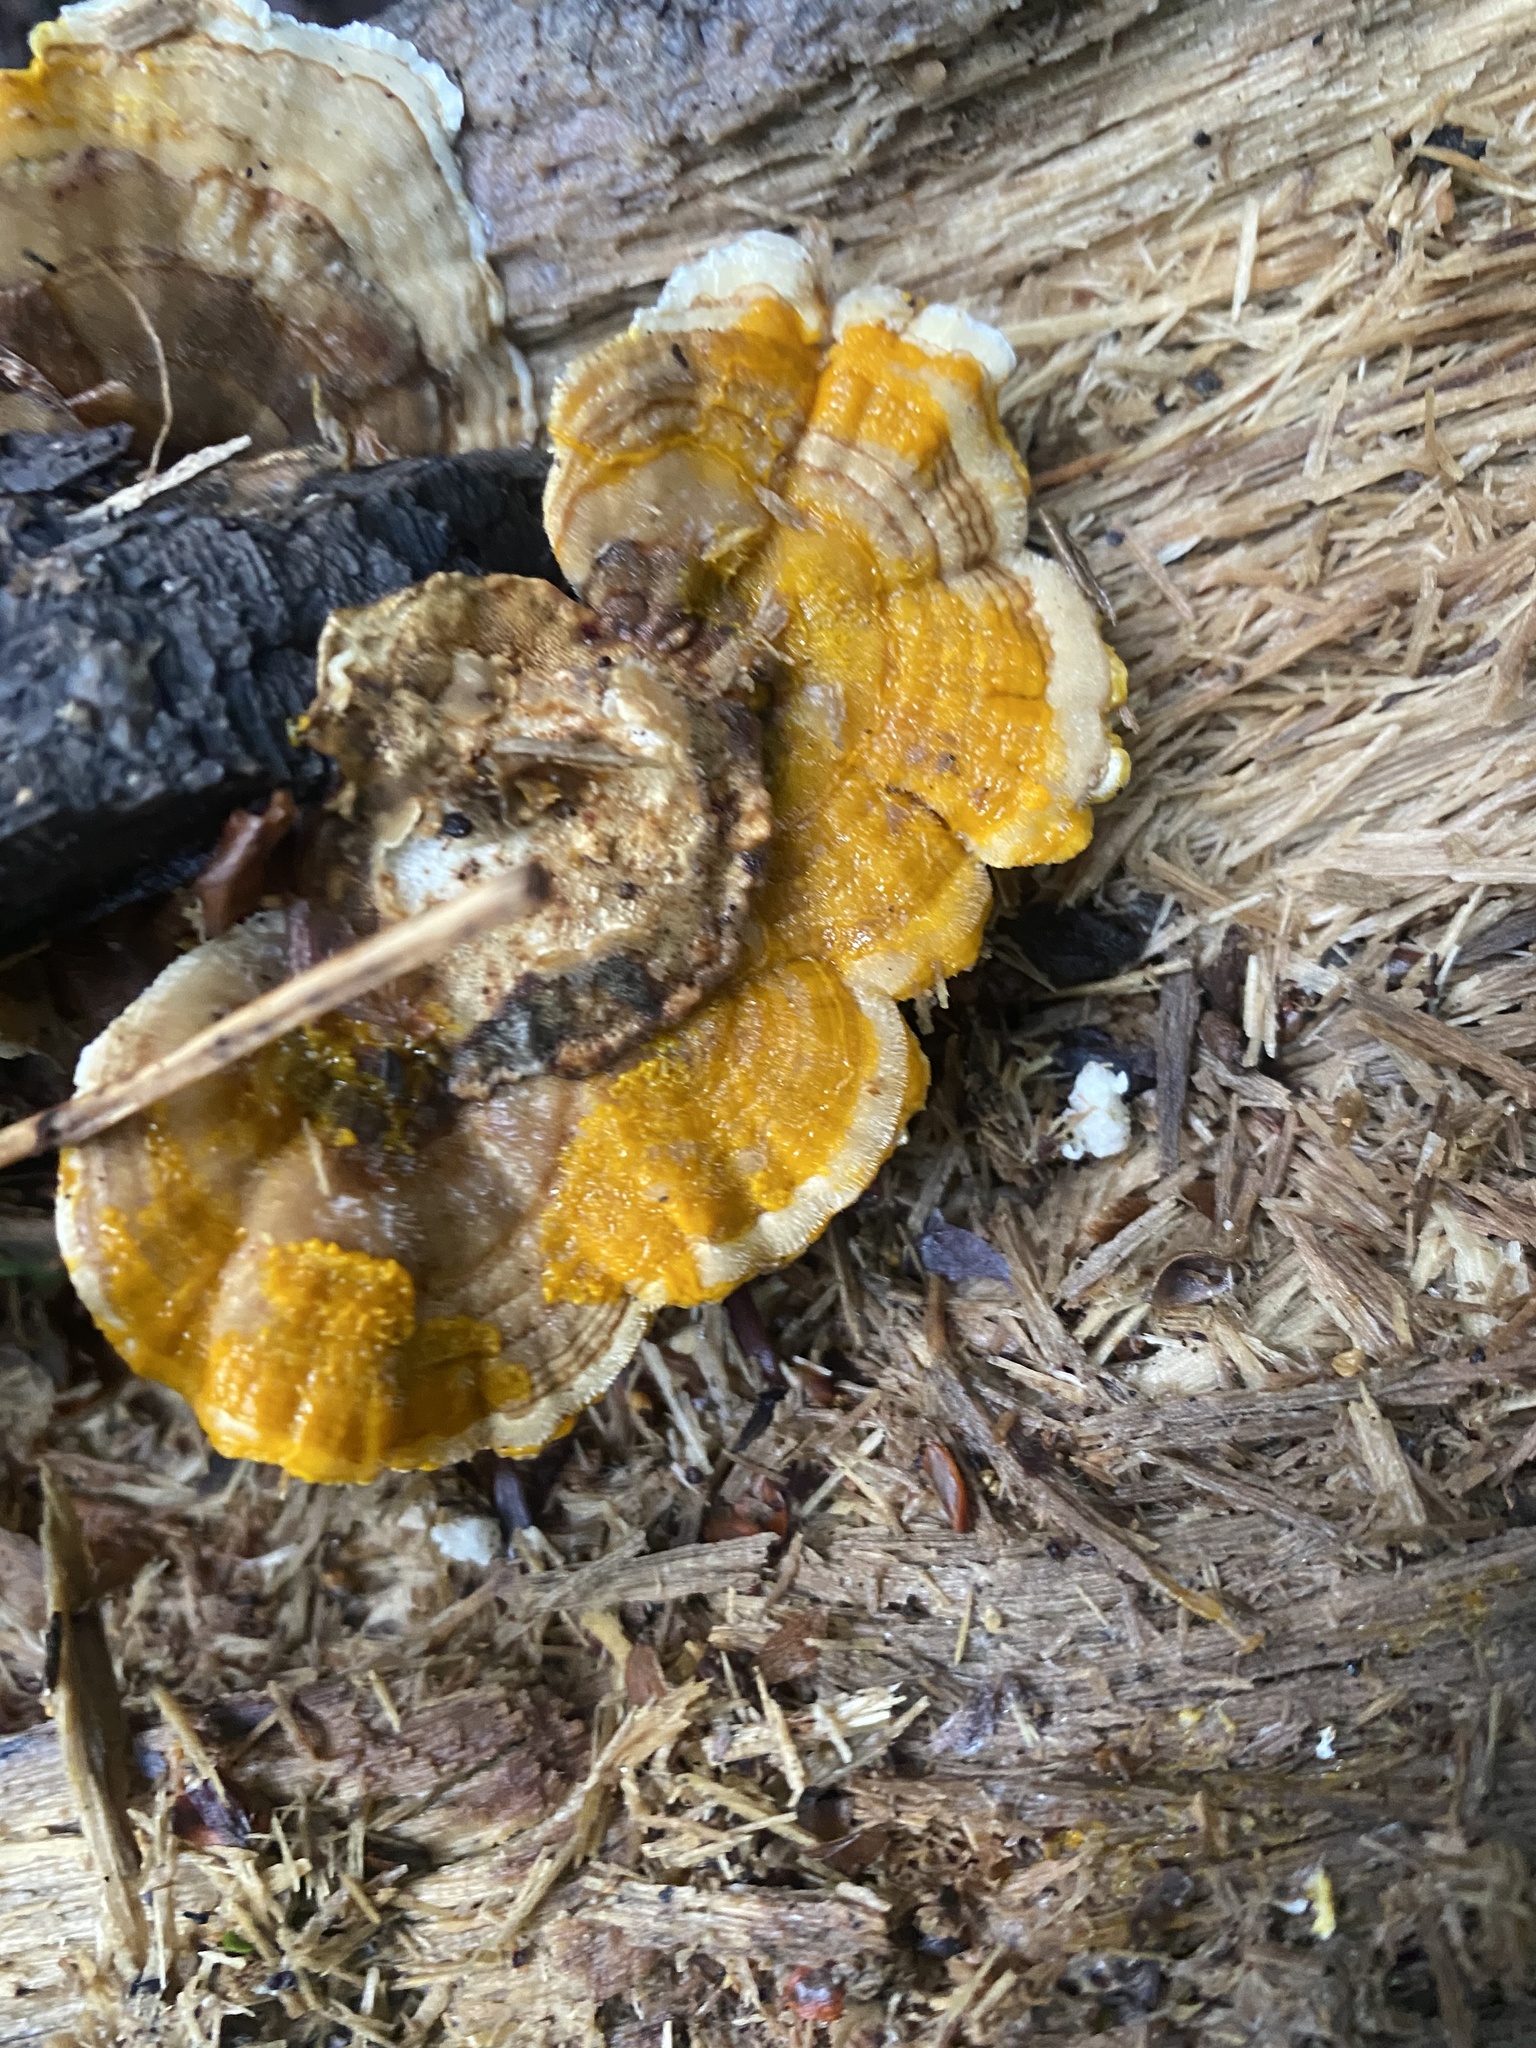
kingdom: Fungi
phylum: Basidiomycota
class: Agaricomycetes
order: Polyporales
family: Polyporaceae
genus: Trametes
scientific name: Trametes versicolor
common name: Turkeytail
